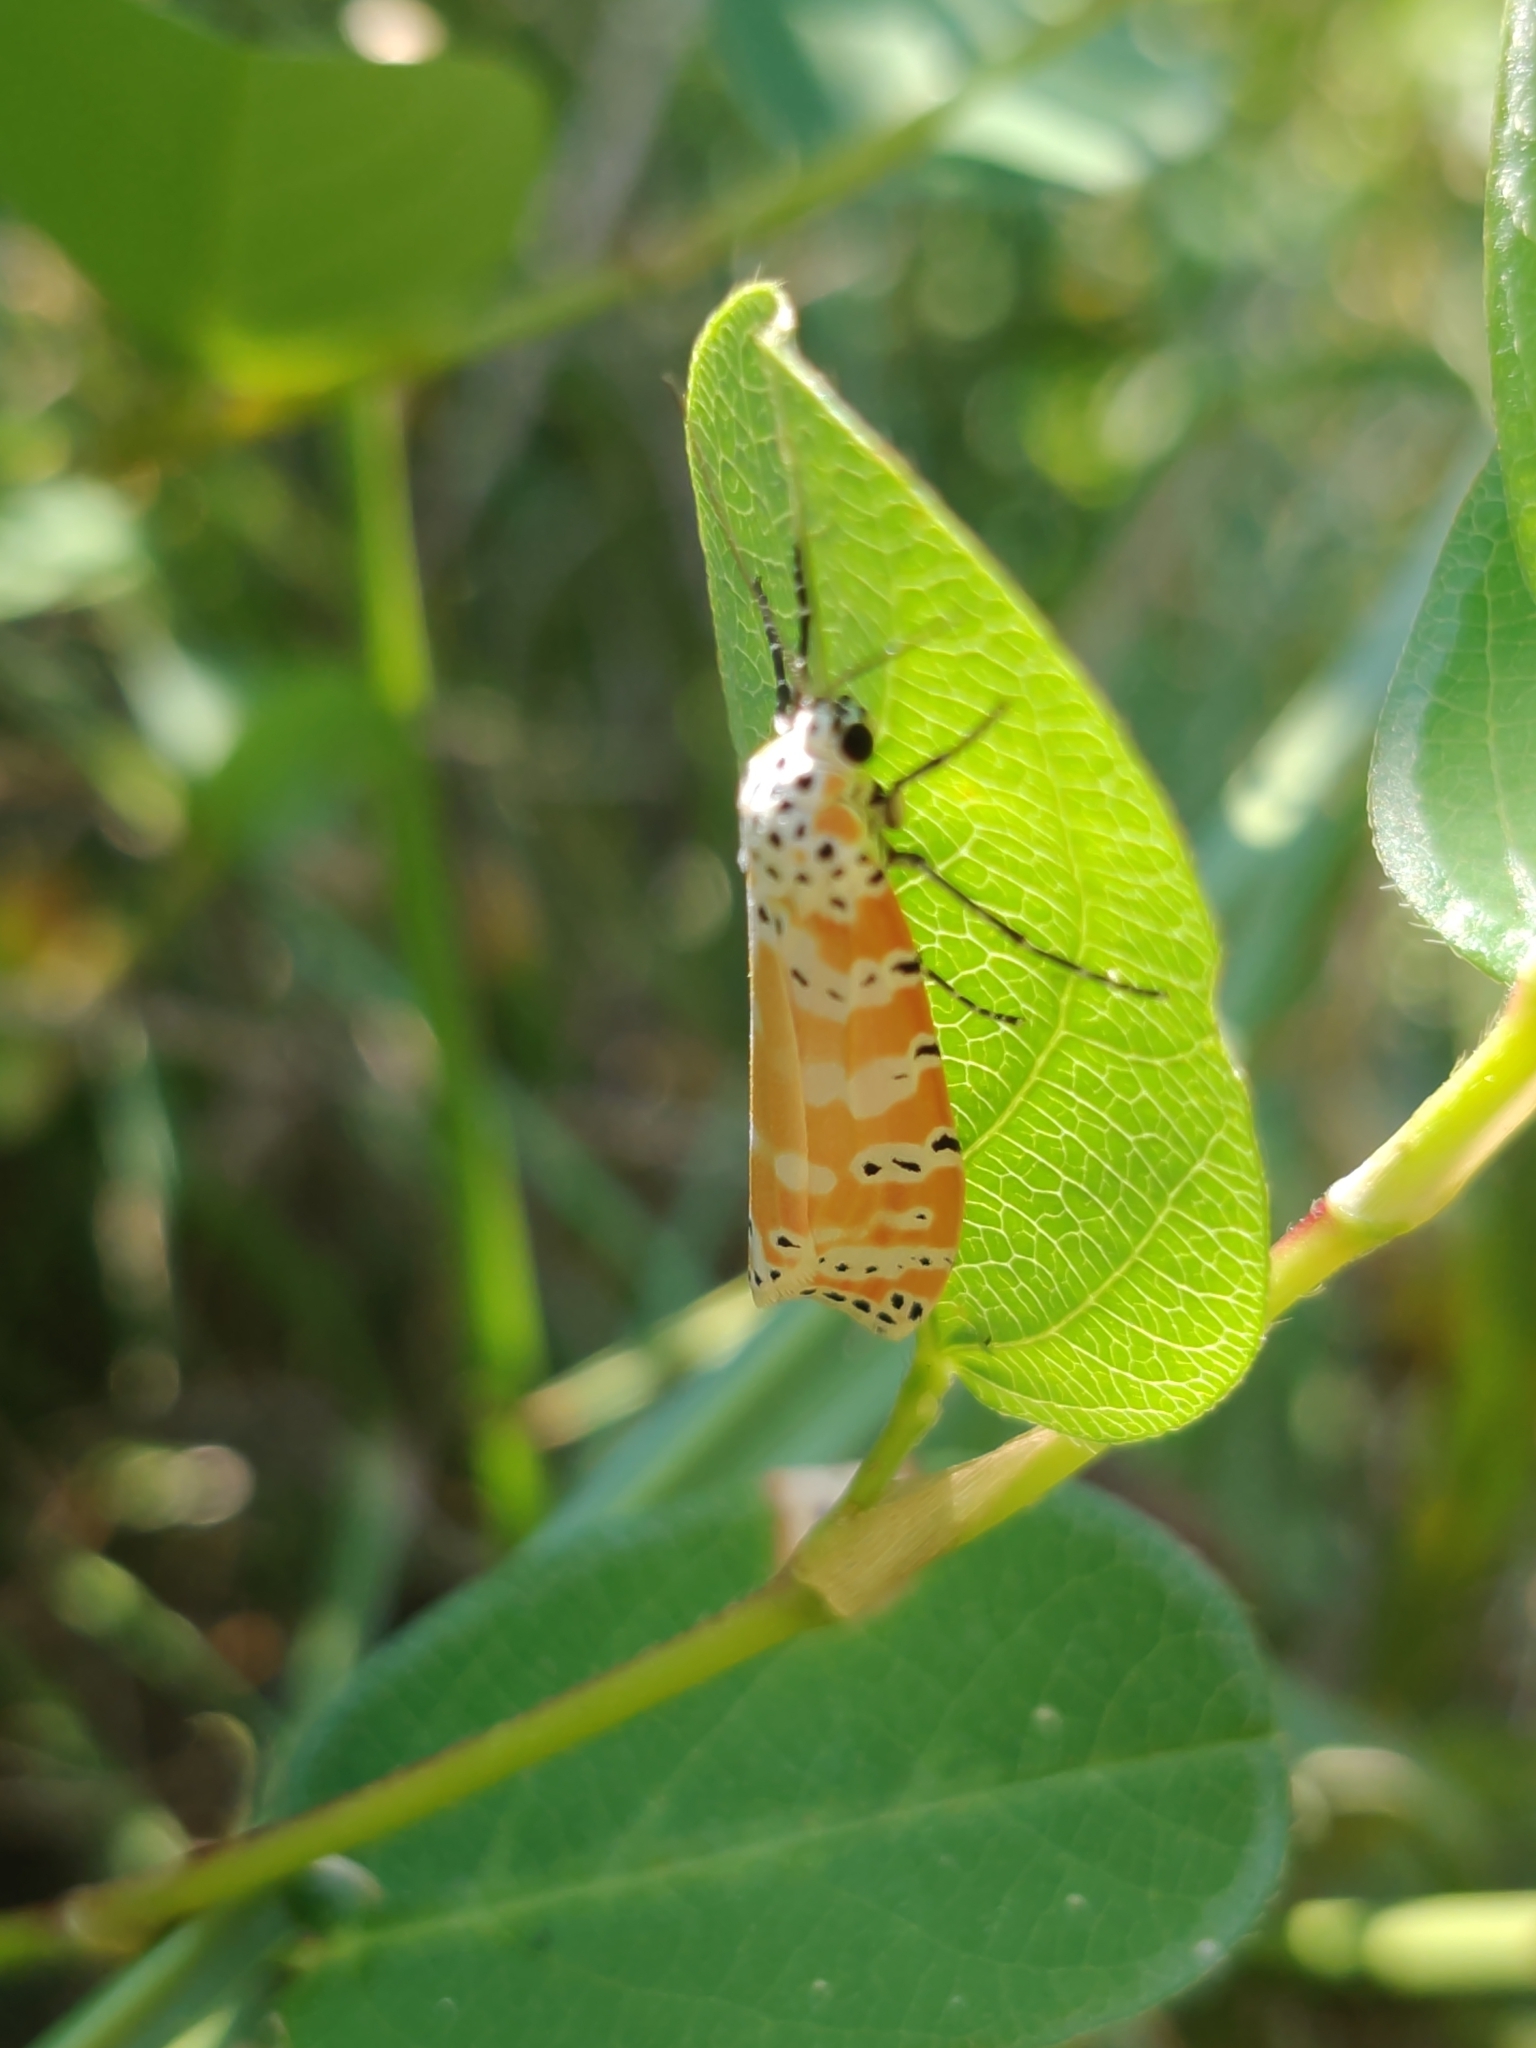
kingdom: Animalia
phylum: Arthropoda
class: Insecta
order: Lepidoptera
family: Erebidae
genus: Utetheisa
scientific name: Utetheisa ornatrix
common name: Beautiful utetheisa
